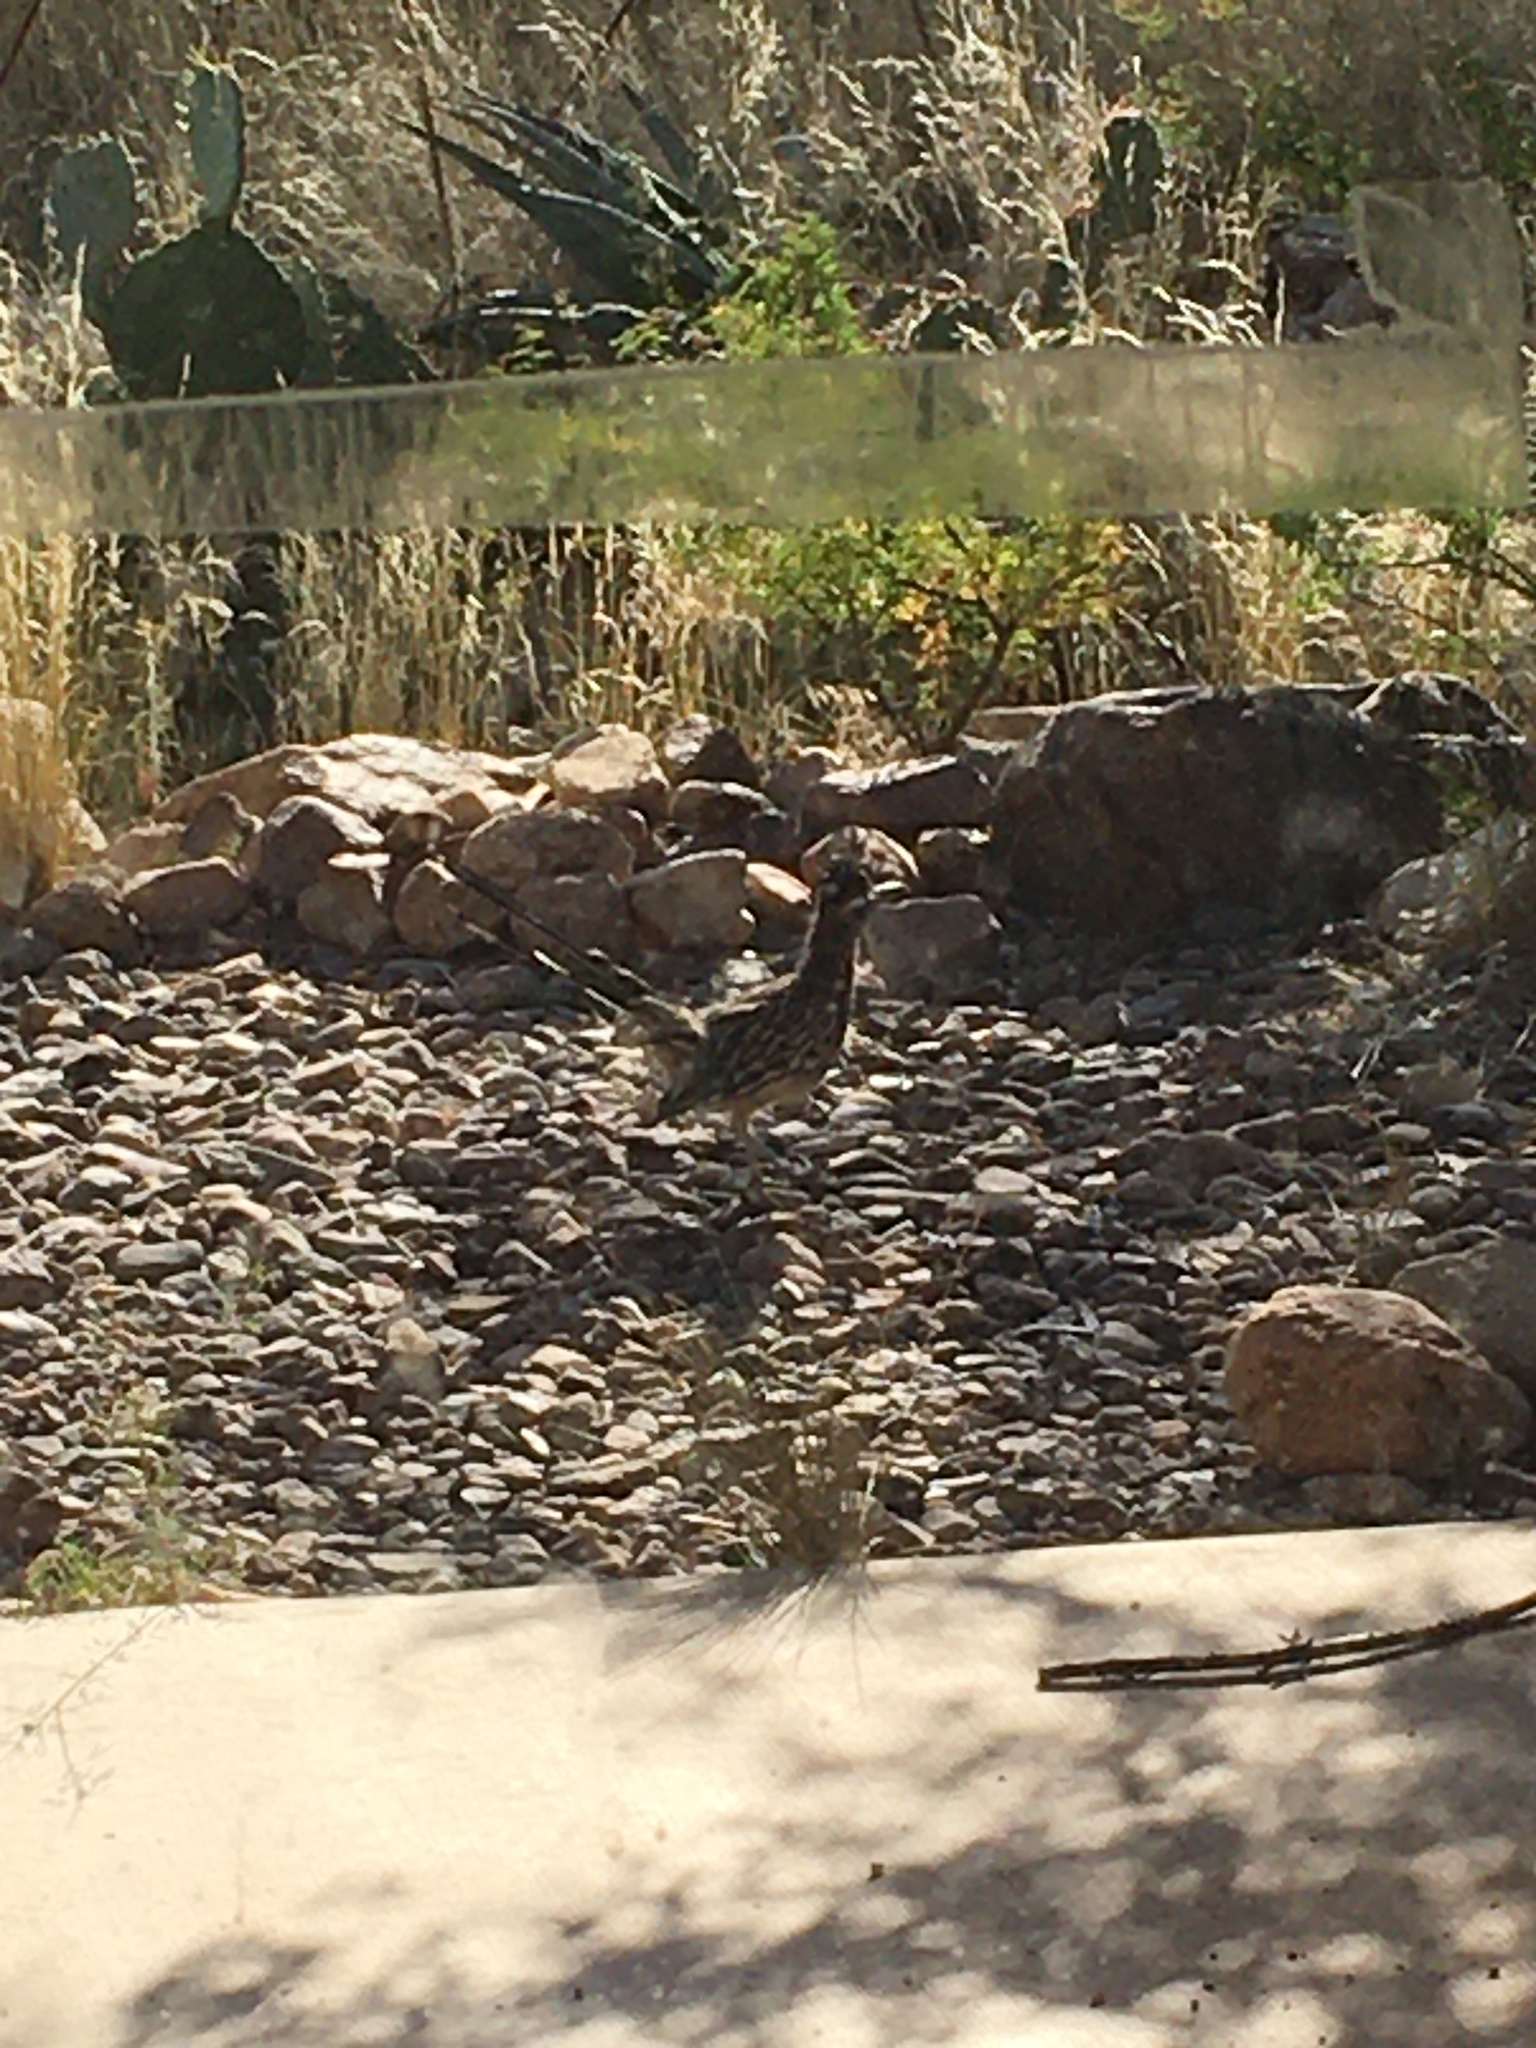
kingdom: Animalia
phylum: Chordata
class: Aves
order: Cuculiformes
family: Cuculidae
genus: Geococcyx
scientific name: Geococcyx californianus
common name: Greater roadrunner
